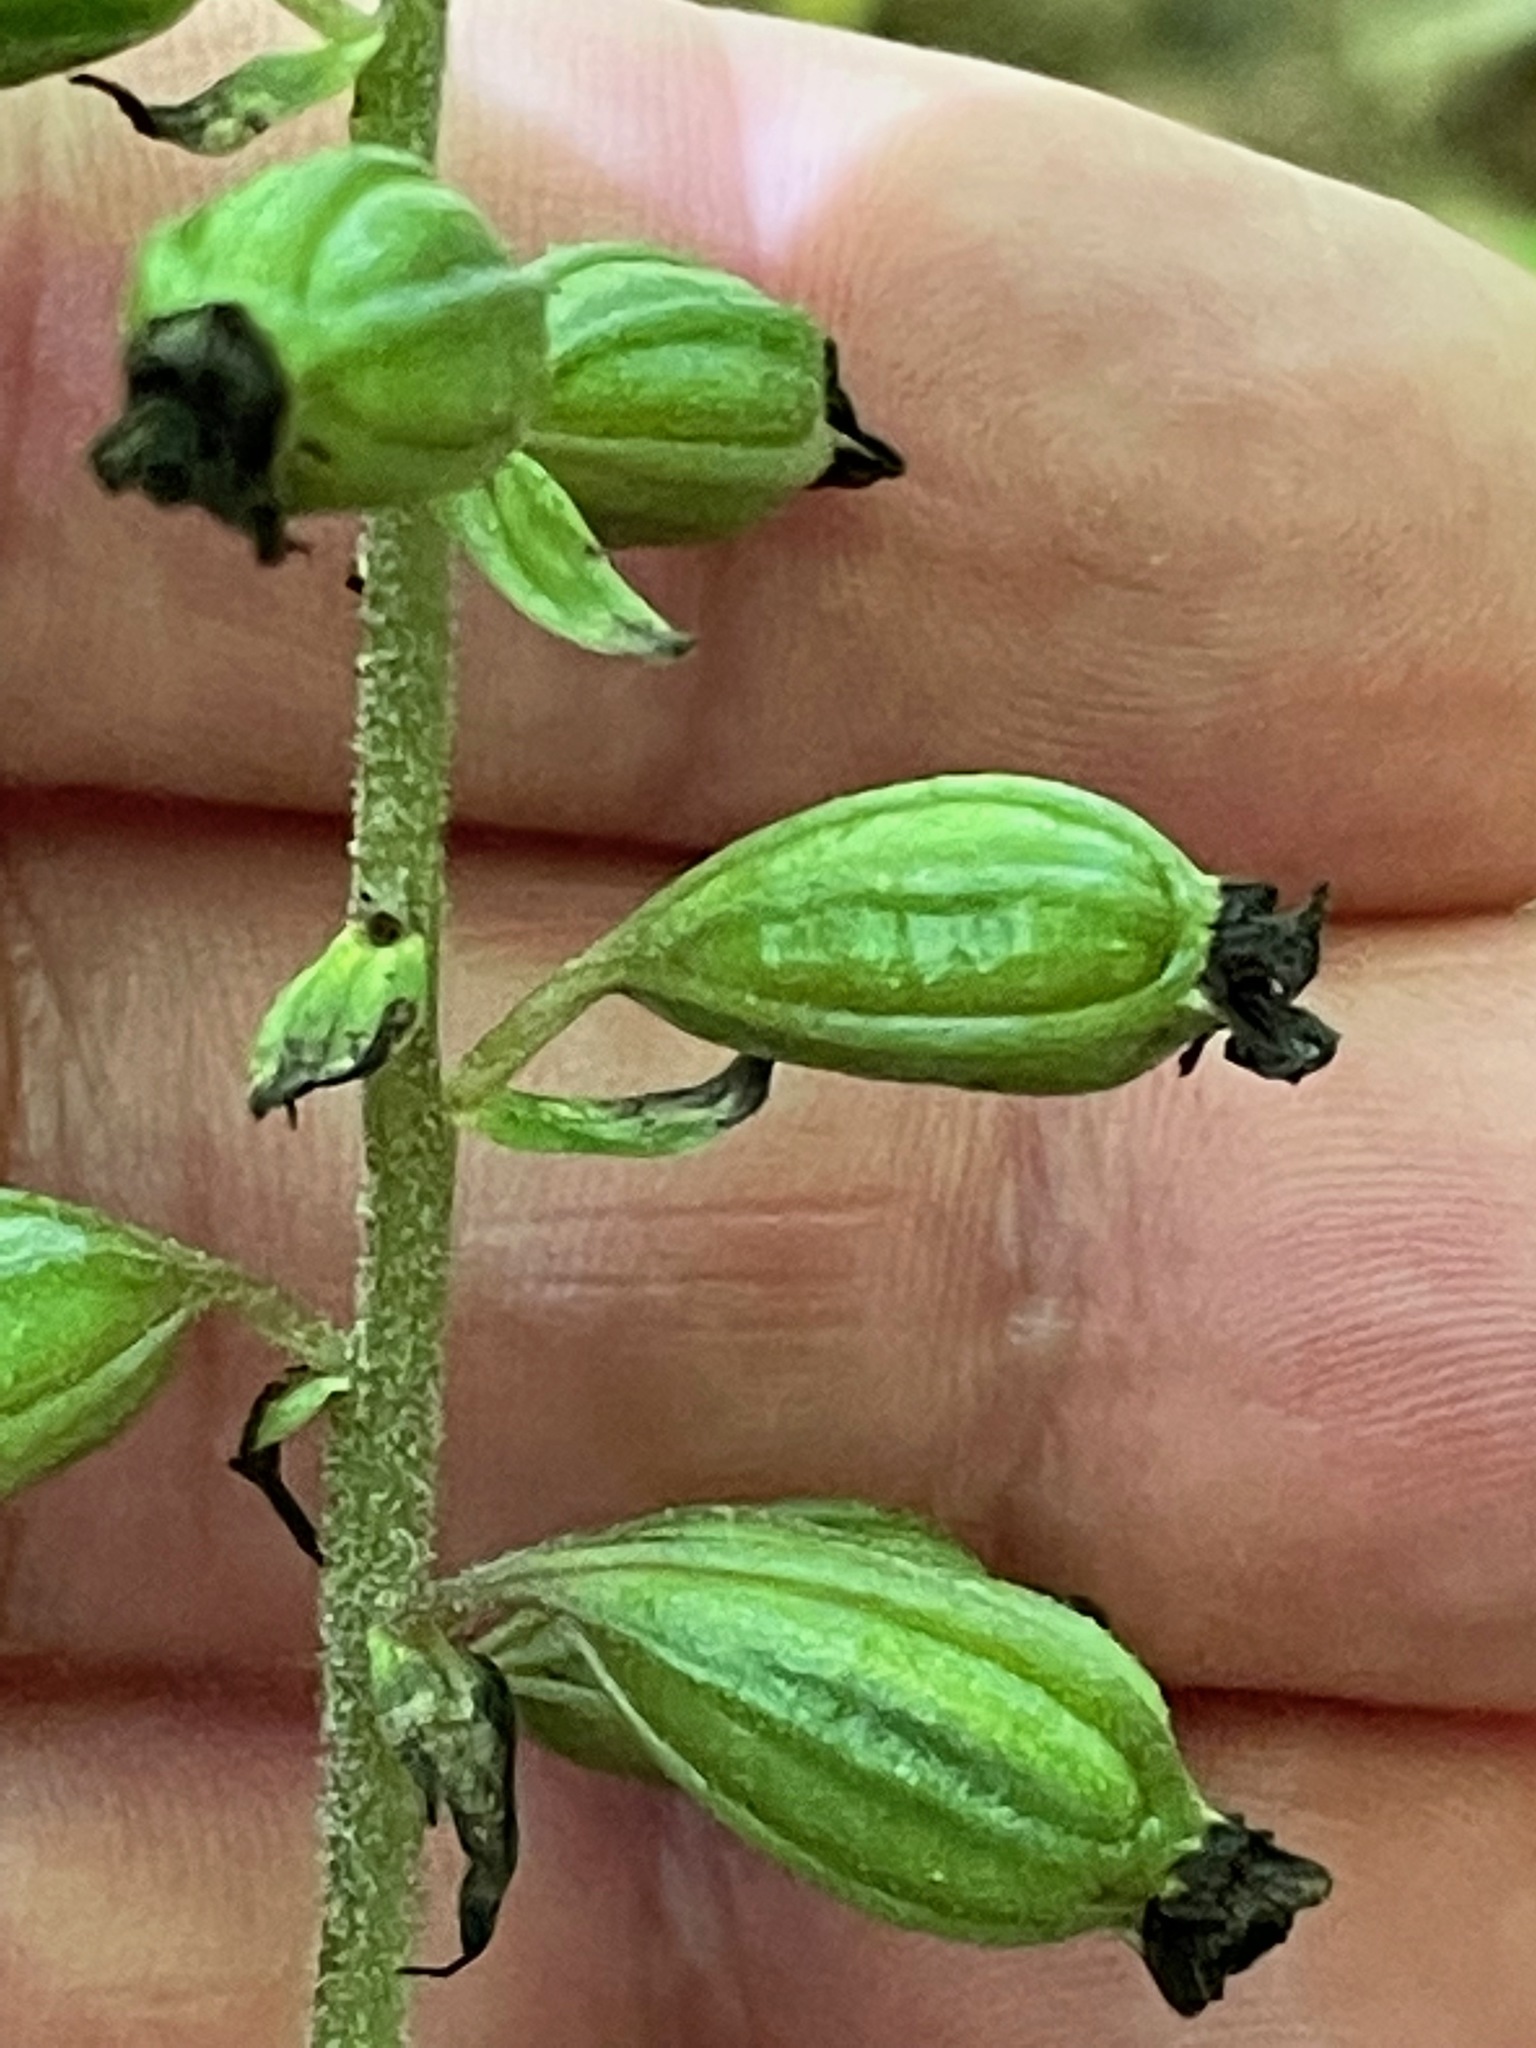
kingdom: Plantae
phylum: Tracheophyta
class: Liliopsida
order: Asparagales
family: Orchidaceae
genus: Epipactis
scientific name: Epipactis helleborine
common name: Broad-leaved helleborine
